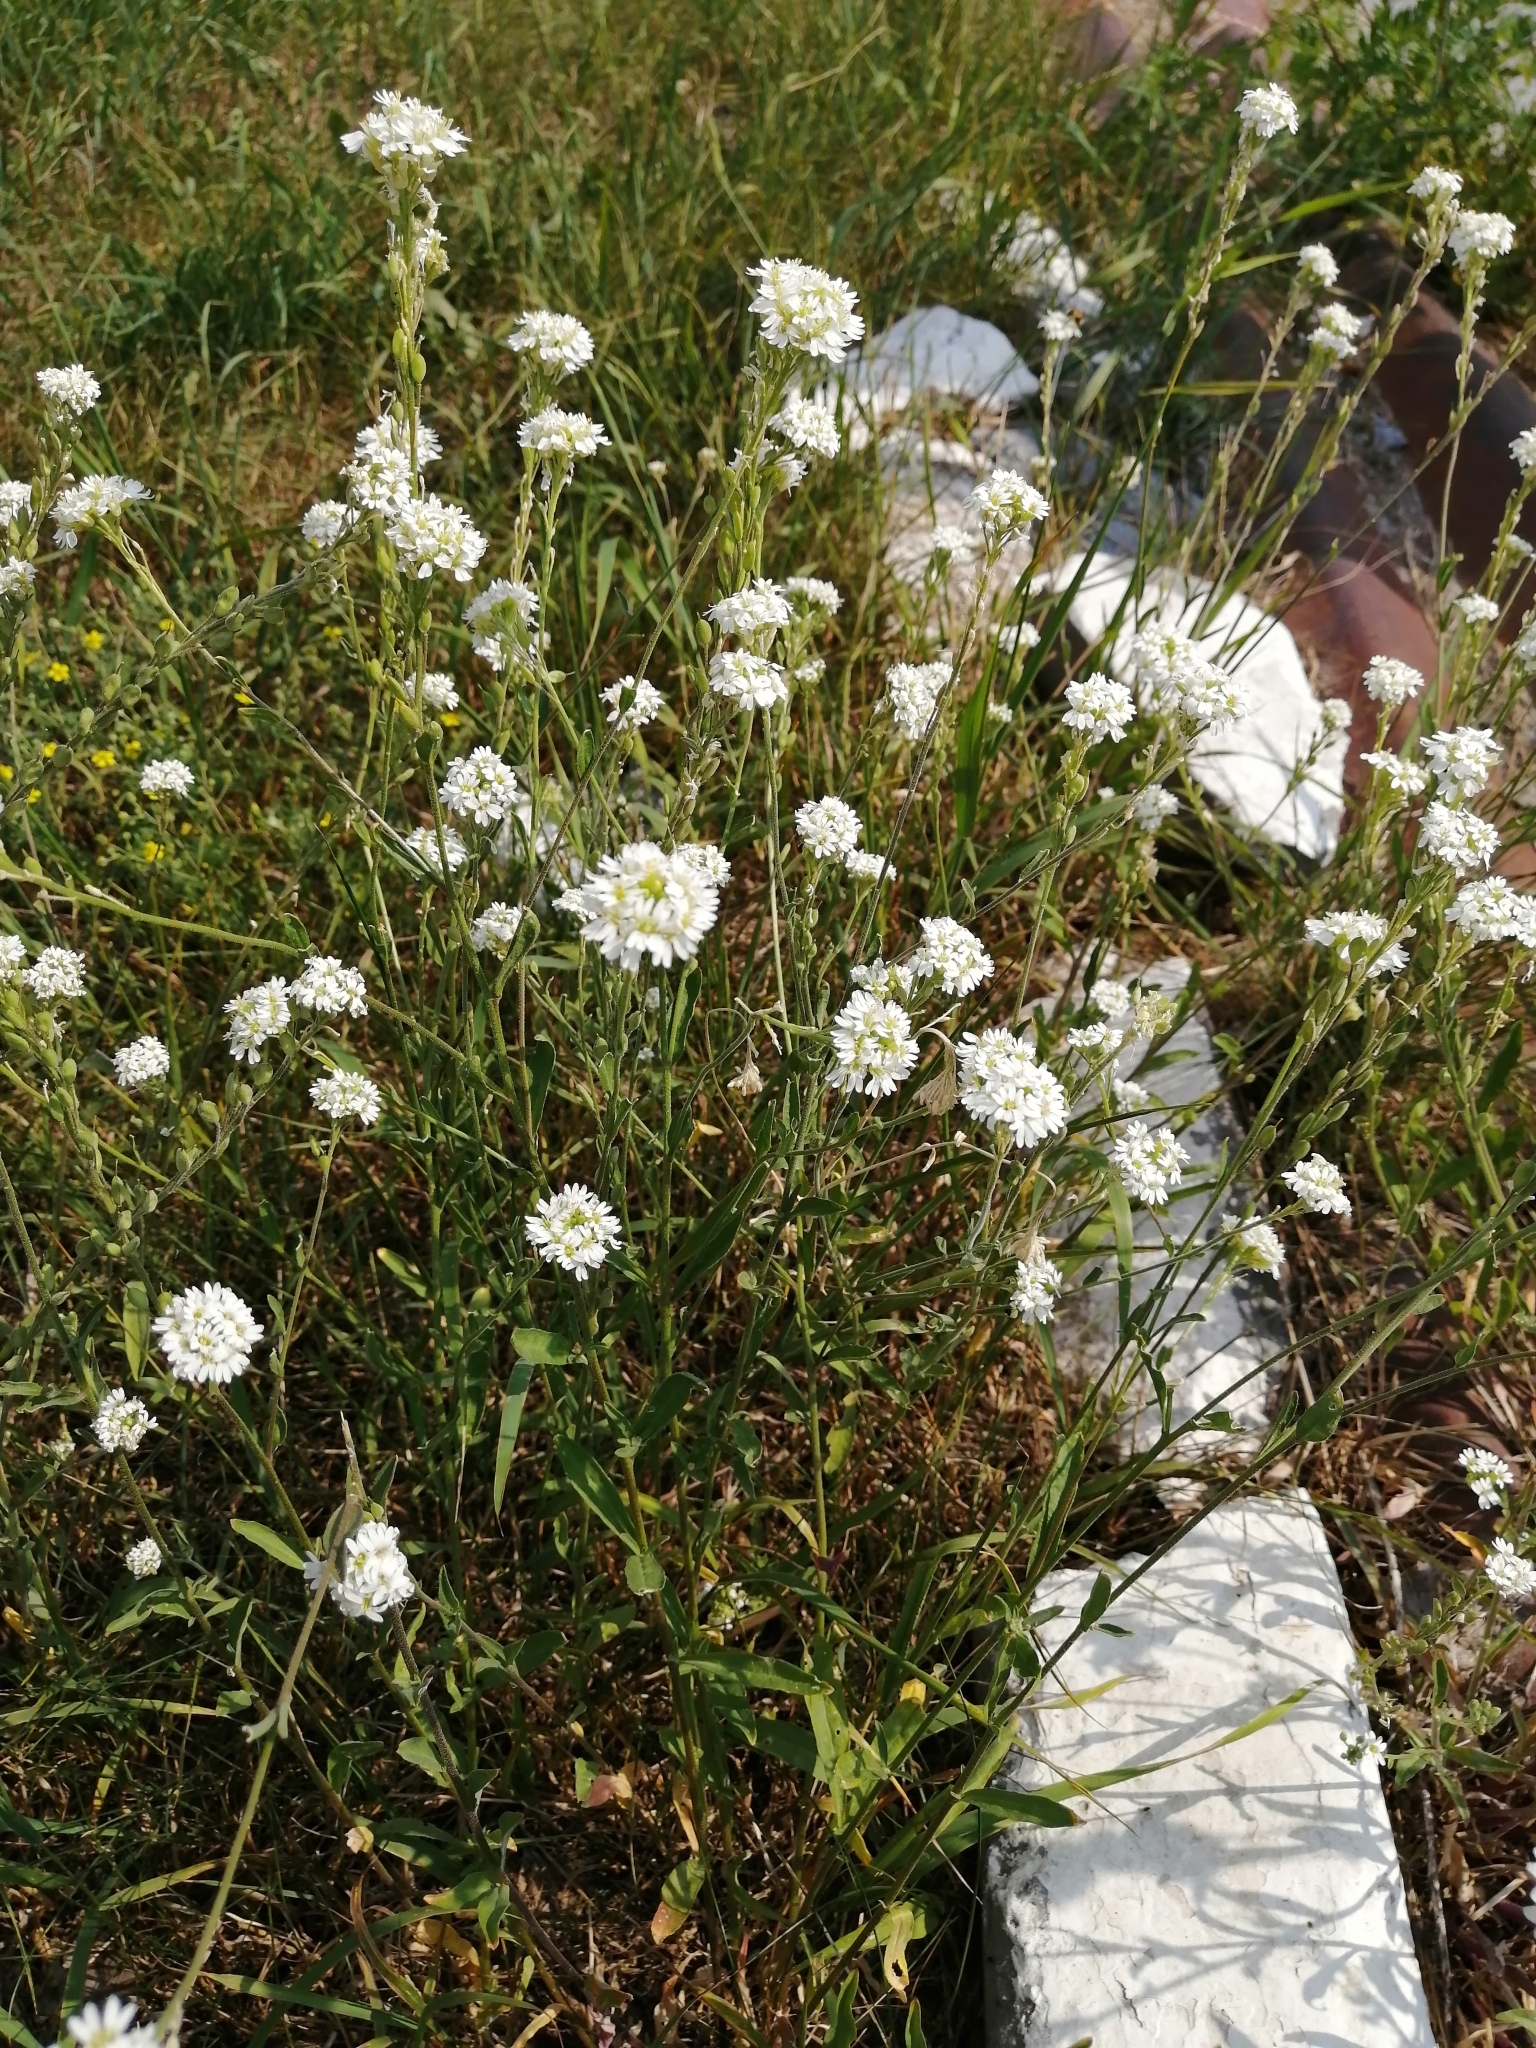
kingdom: Plantae
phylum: Tracheophyta
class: Magnoliopsida
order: Brassicales
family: Brassicaceae
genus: Berteroa
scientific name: Berteroa incana
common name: Hoary alison
